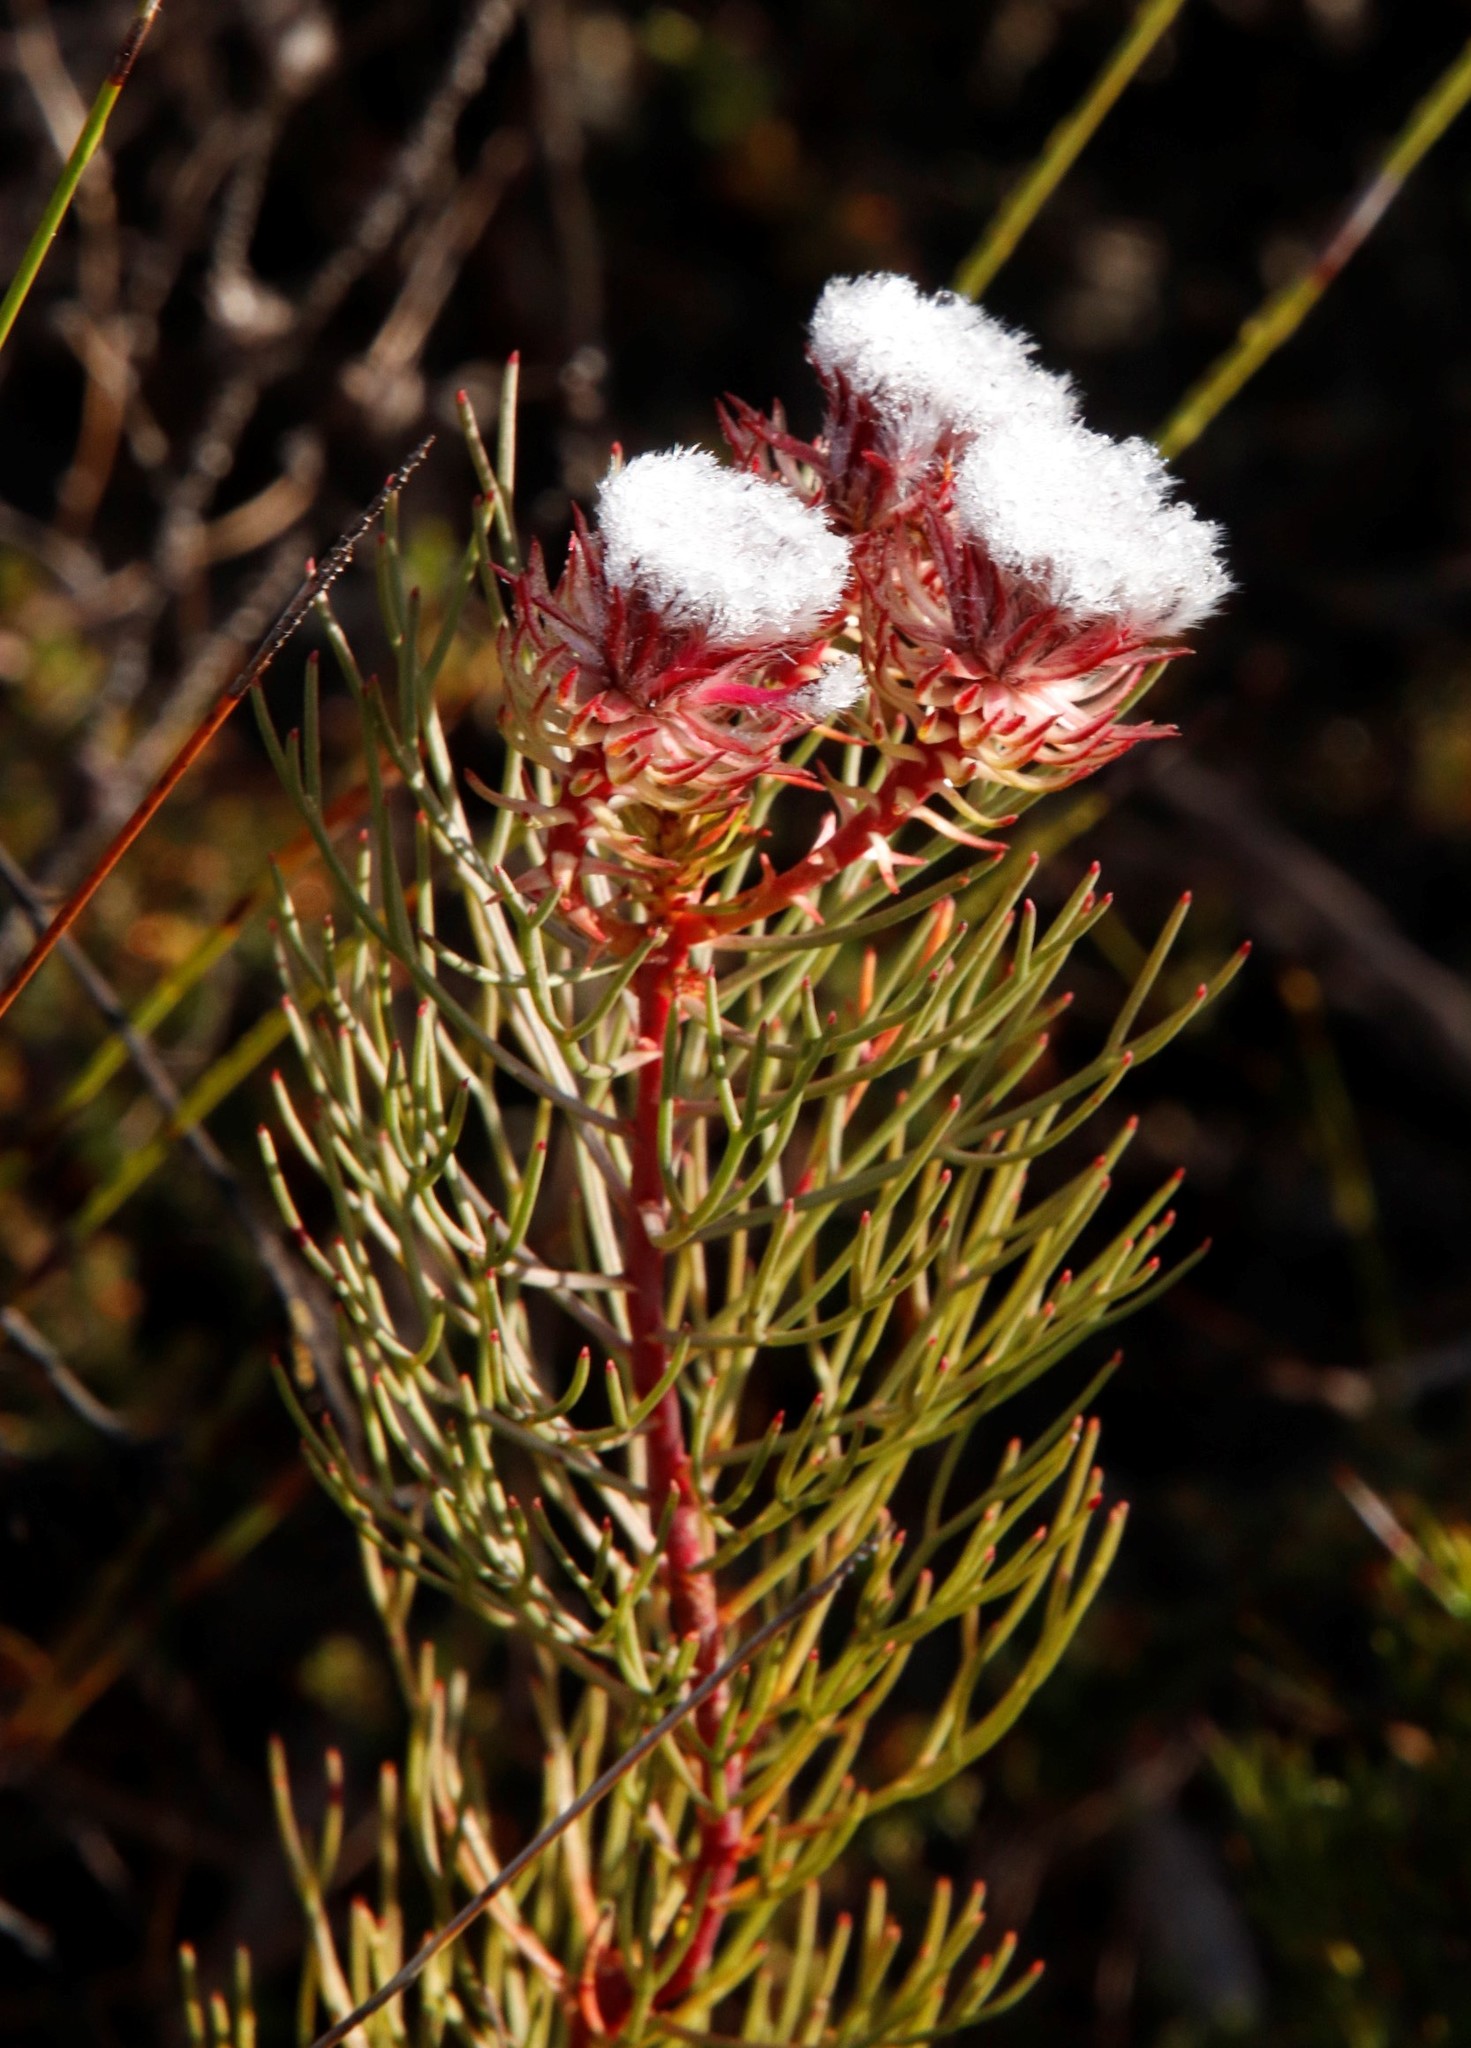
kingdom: Plantae
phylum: Tracheophyta
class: Magnoliopsida
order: Proteales
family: Proteaceae
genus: Serruria
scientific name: Serruria phylicoides
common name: Bearded spiderhead
